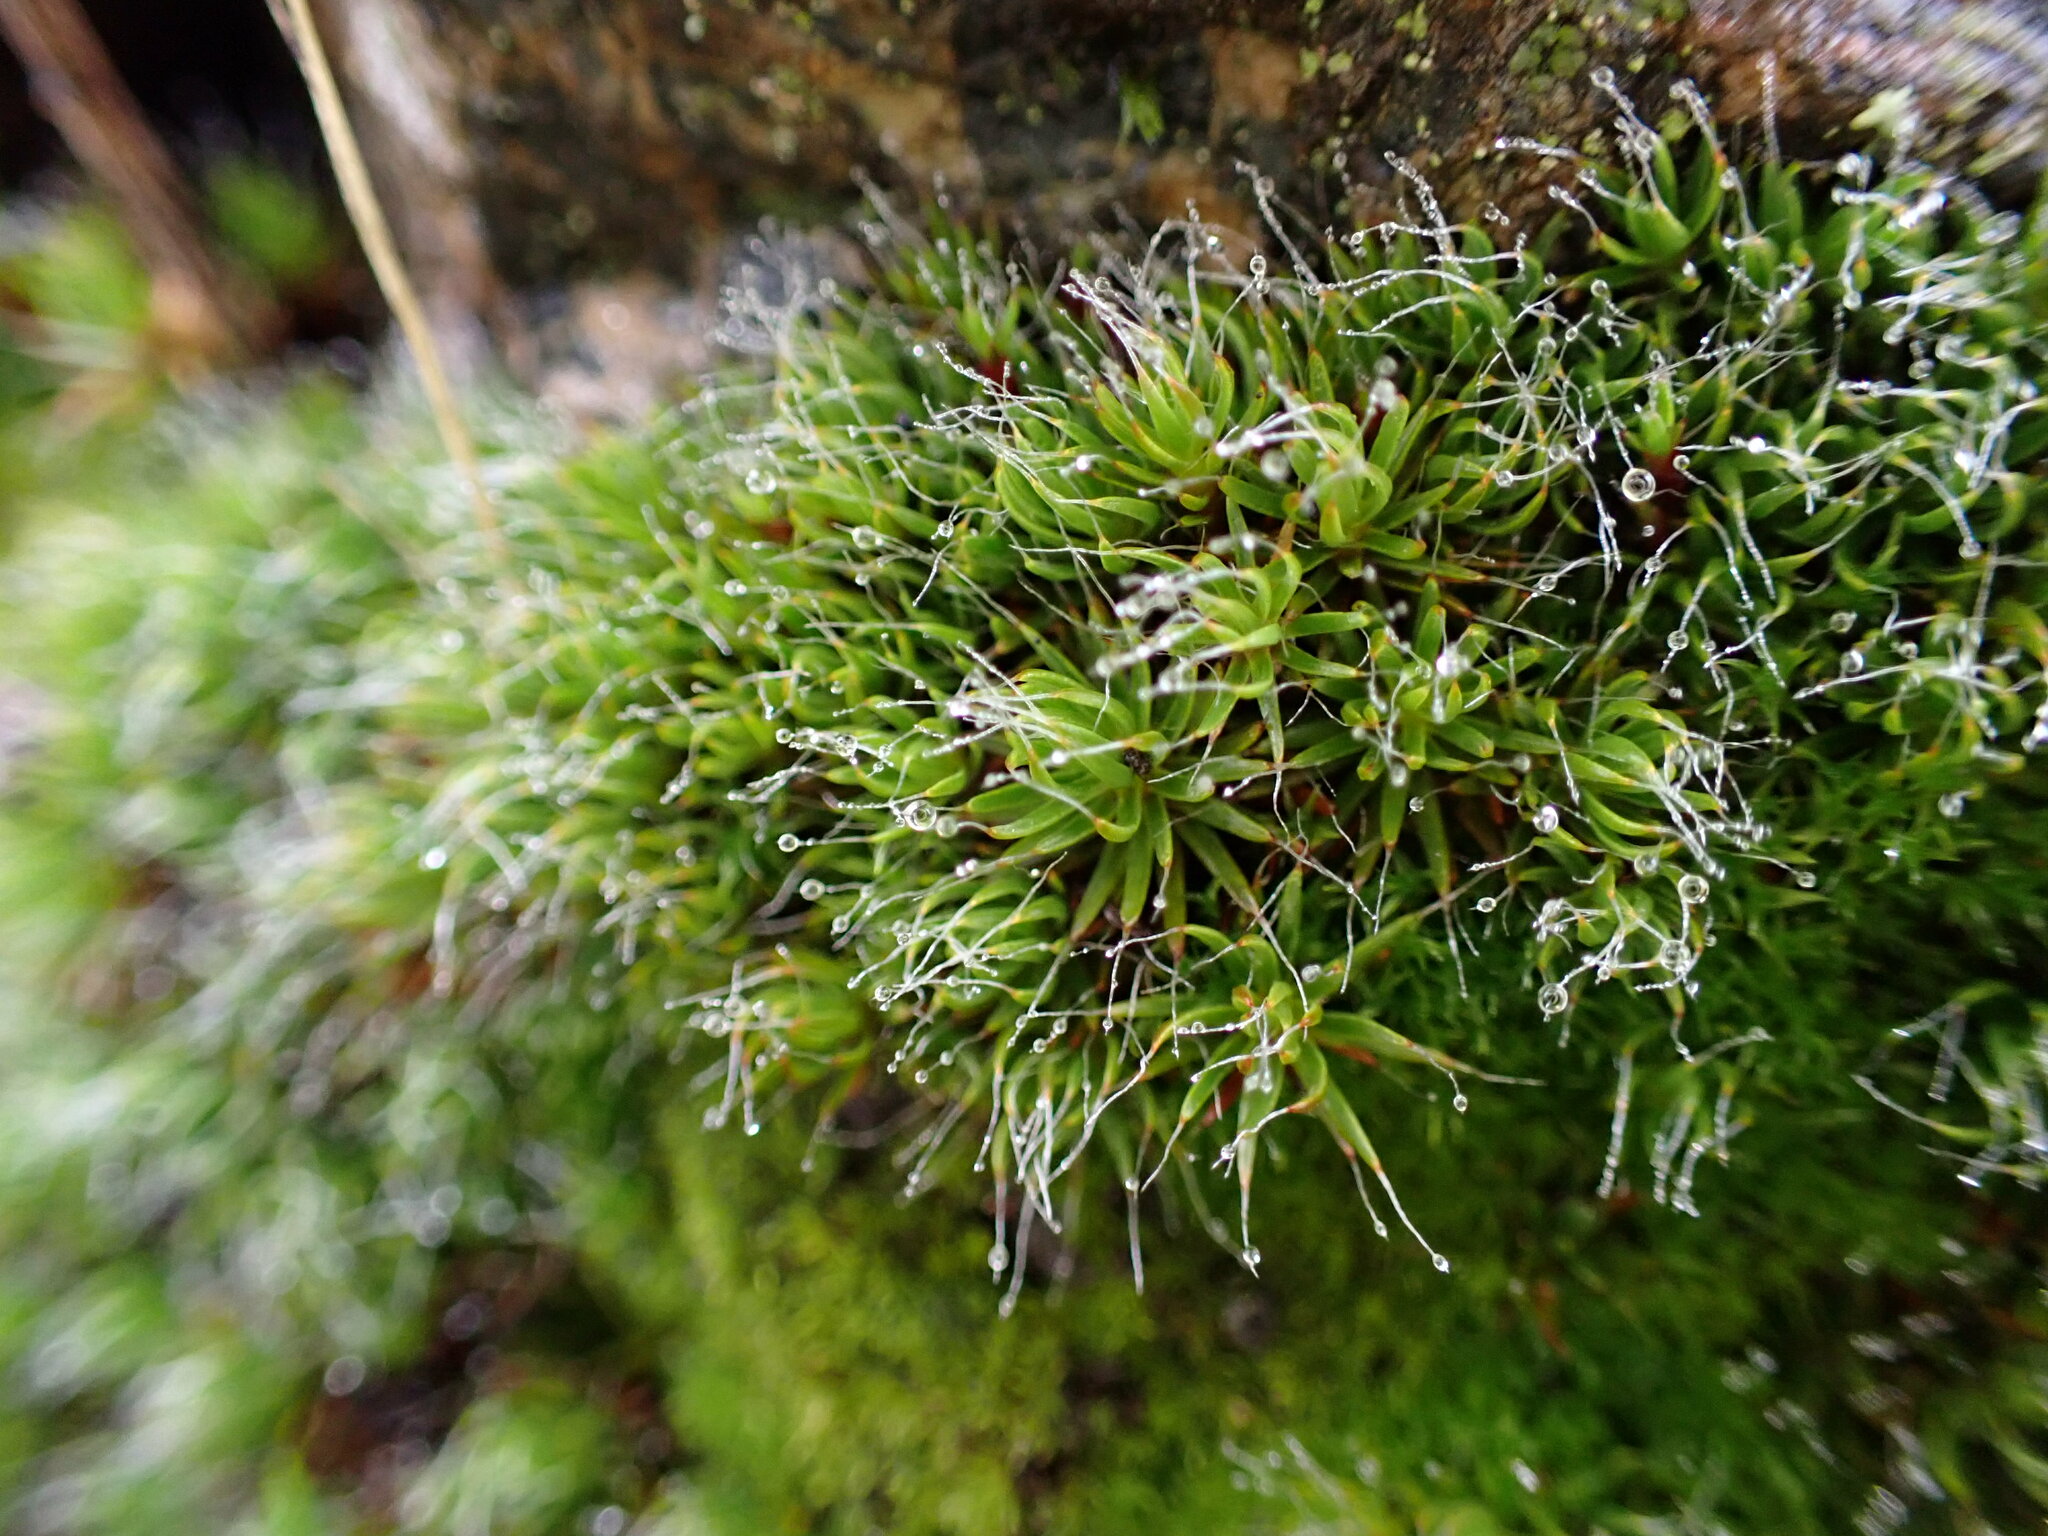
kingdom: Plantae
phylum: Bryophyta
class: Polytrichopsida
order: Polytrichales
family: Polytrichaceae
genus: Polytrichum
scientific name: Polytrichum piliferum
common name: Bristly haircap
